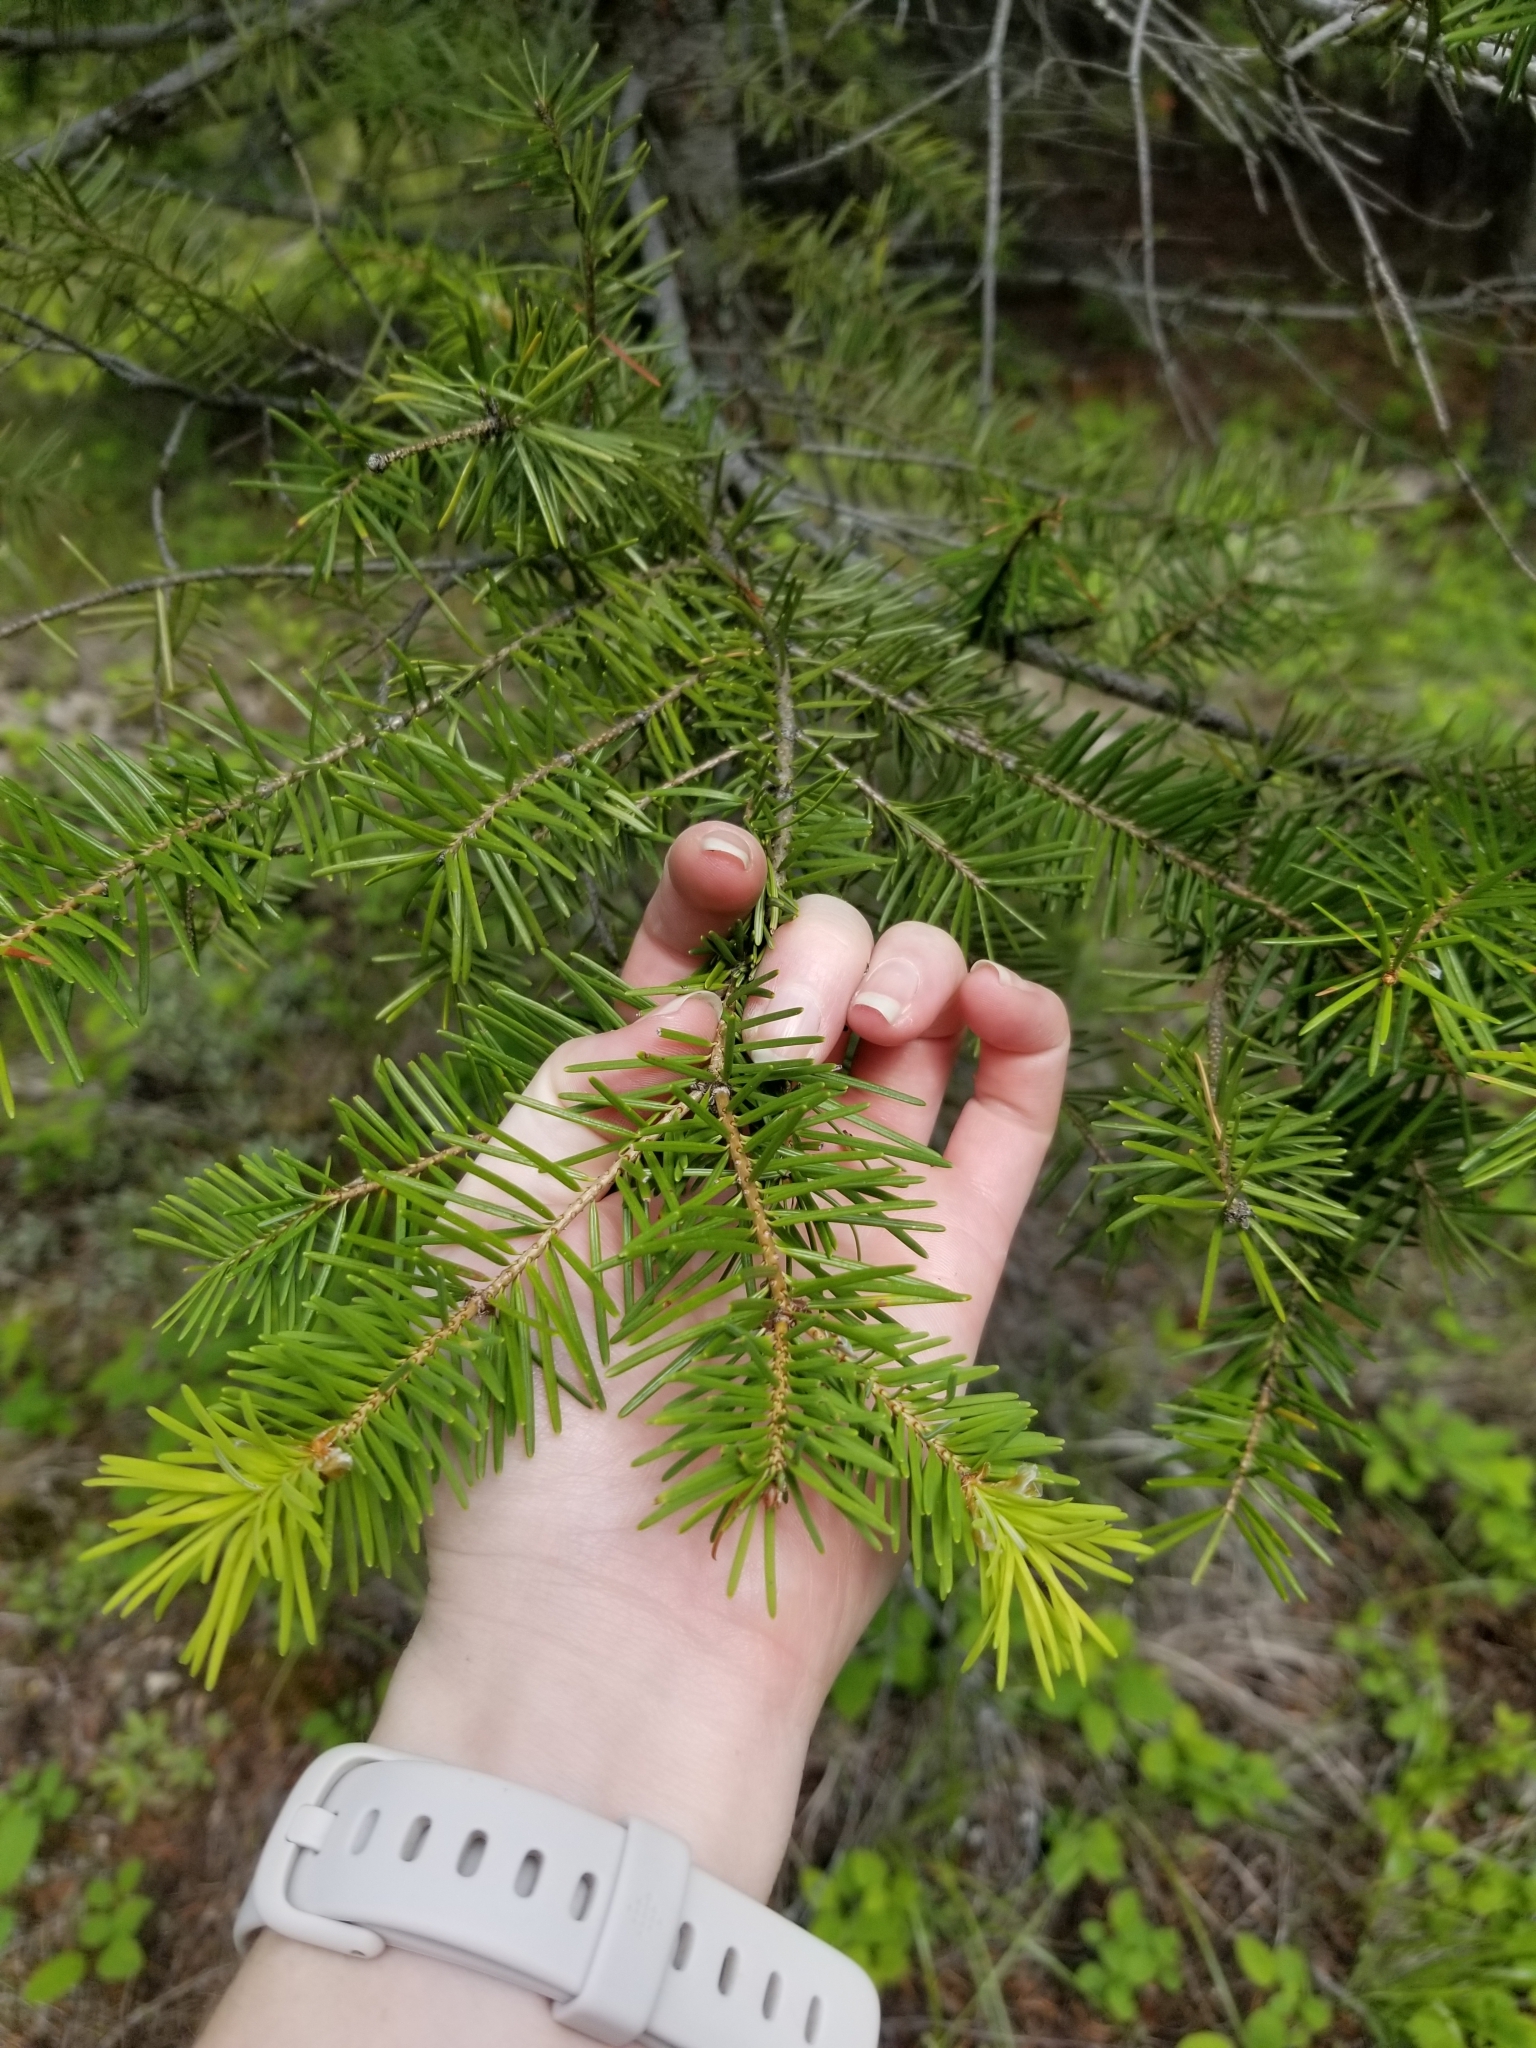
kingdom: Plantae
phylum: Tracheophyta
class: Pinopsida
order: Pinales
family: Pinaceae
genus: Pseudotsuga
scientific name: Pseudotsuga menziesii
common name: Douglas fir
